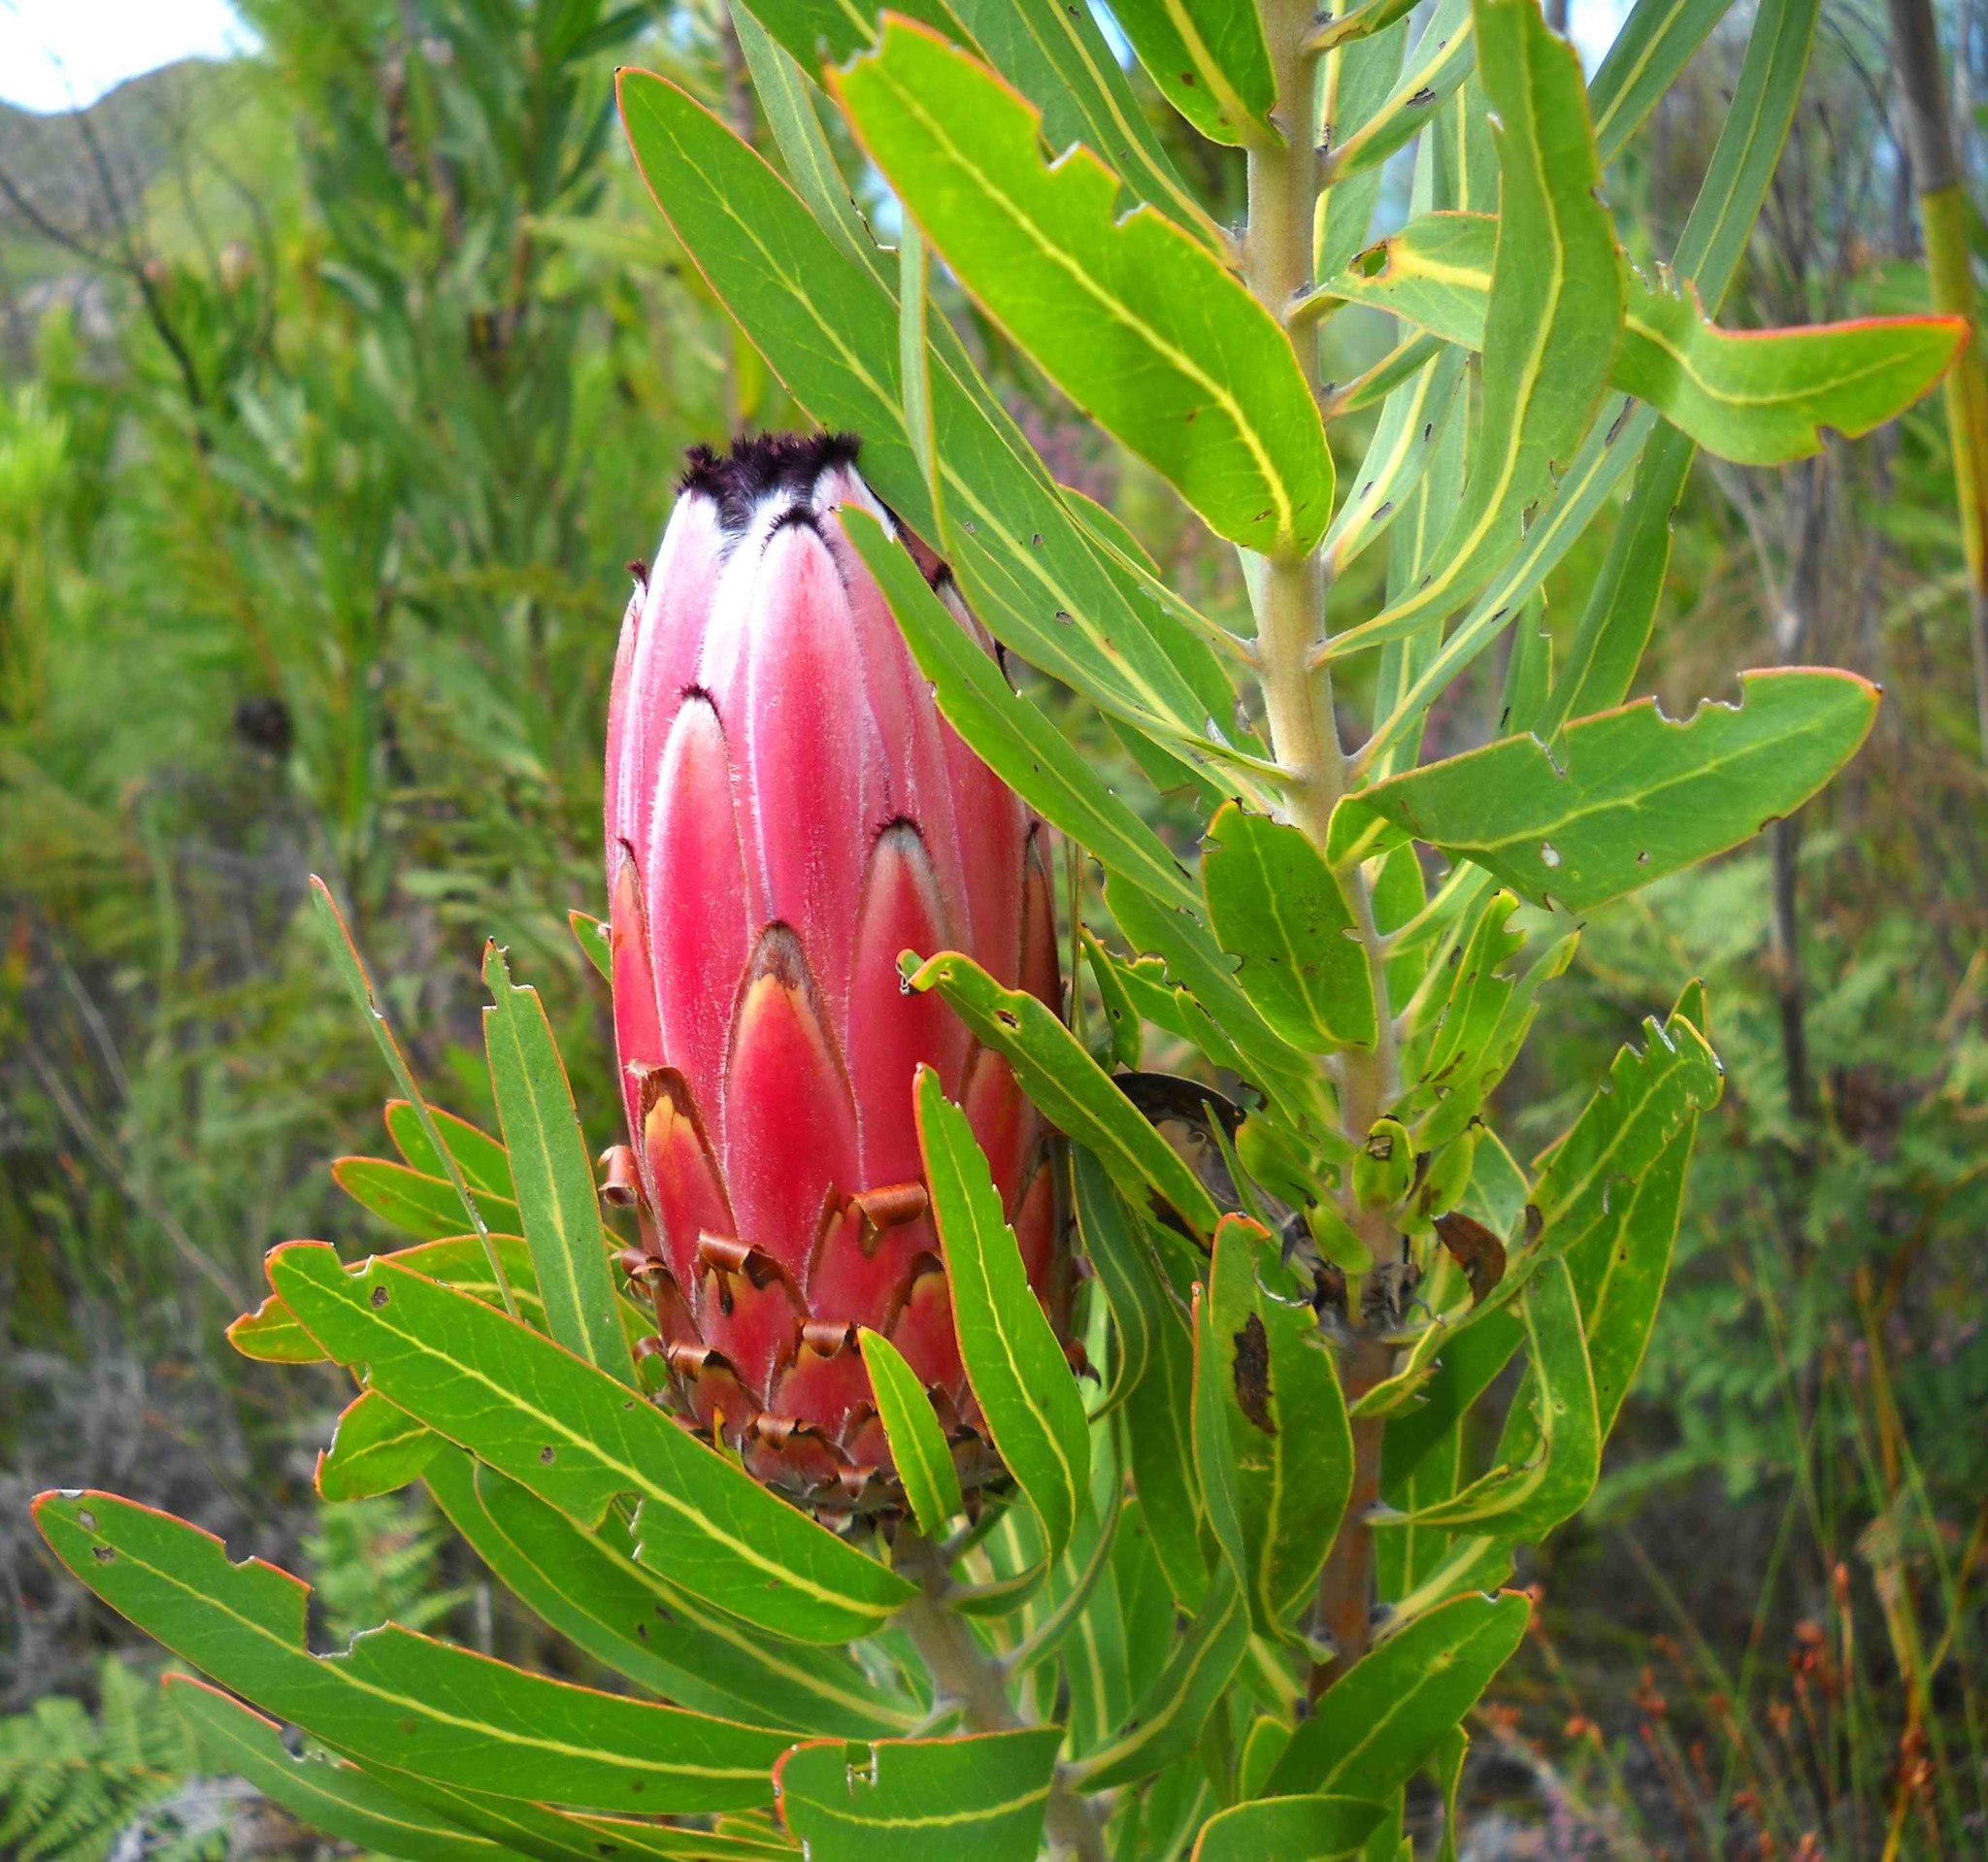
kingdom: Plantae
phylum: Tracheophyta
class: Magnoliopsida
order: Proteales
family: Proteaceae
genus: Protea
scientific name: Protea neriifolia
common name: Blue sugarbush
